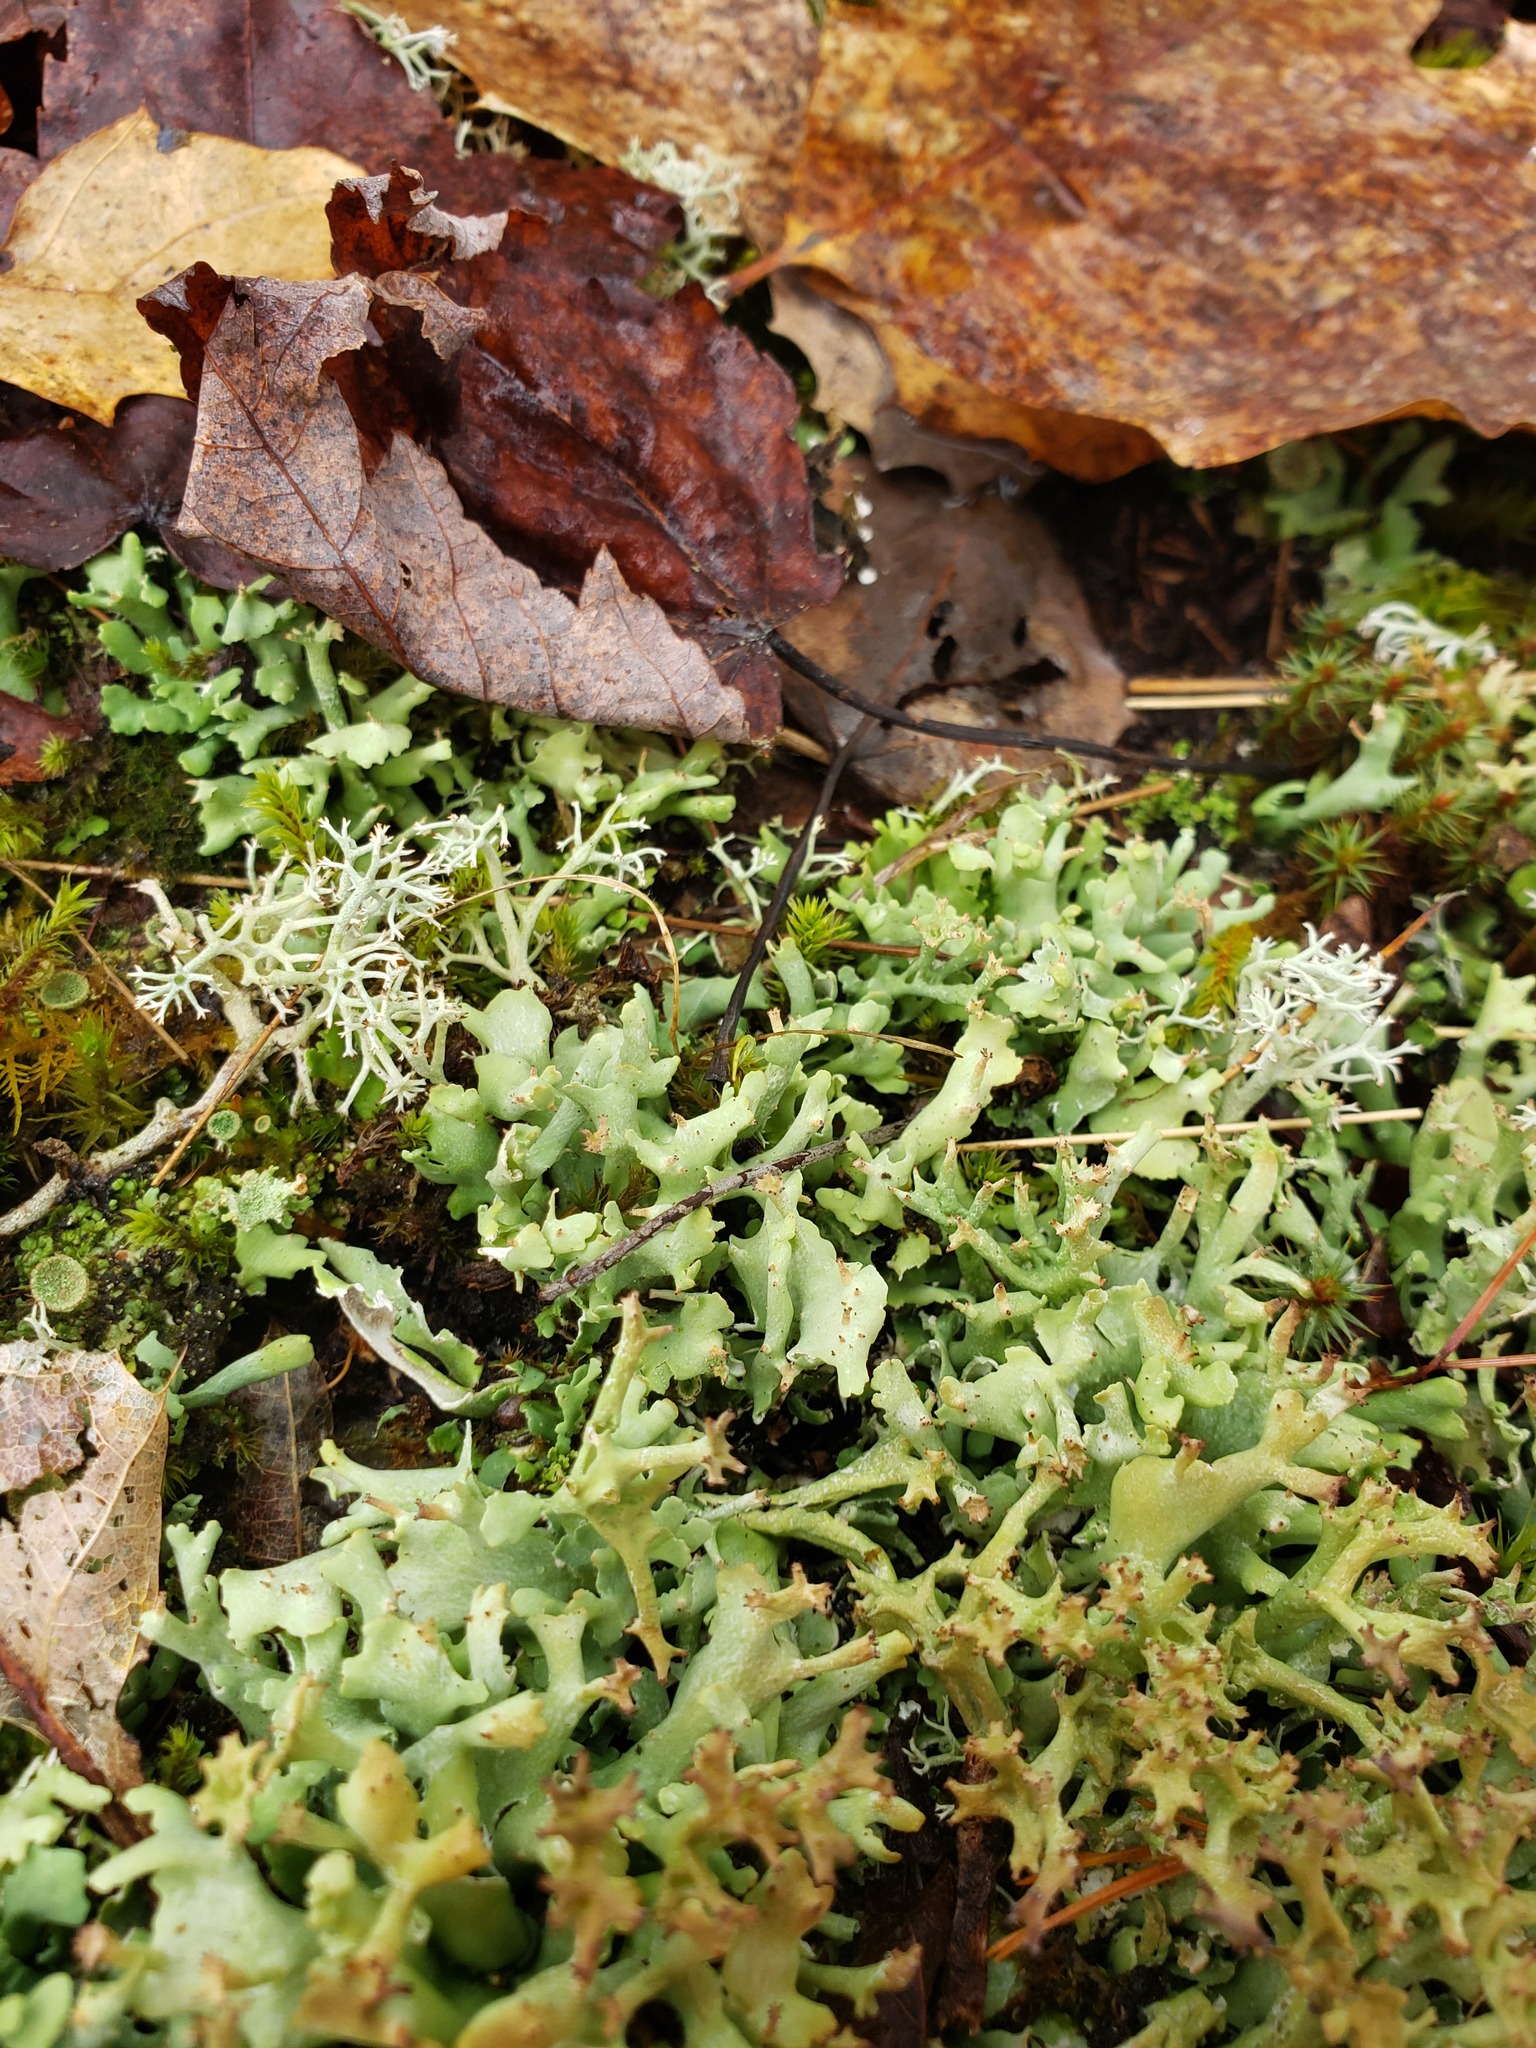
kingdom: Fungi
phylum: Ascomycota
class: Lecanoromycetes
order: Lecanorales
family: Cladoniaceae
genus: Cladonia
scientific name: Cladonia turgida
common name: Crazy scale lichen
